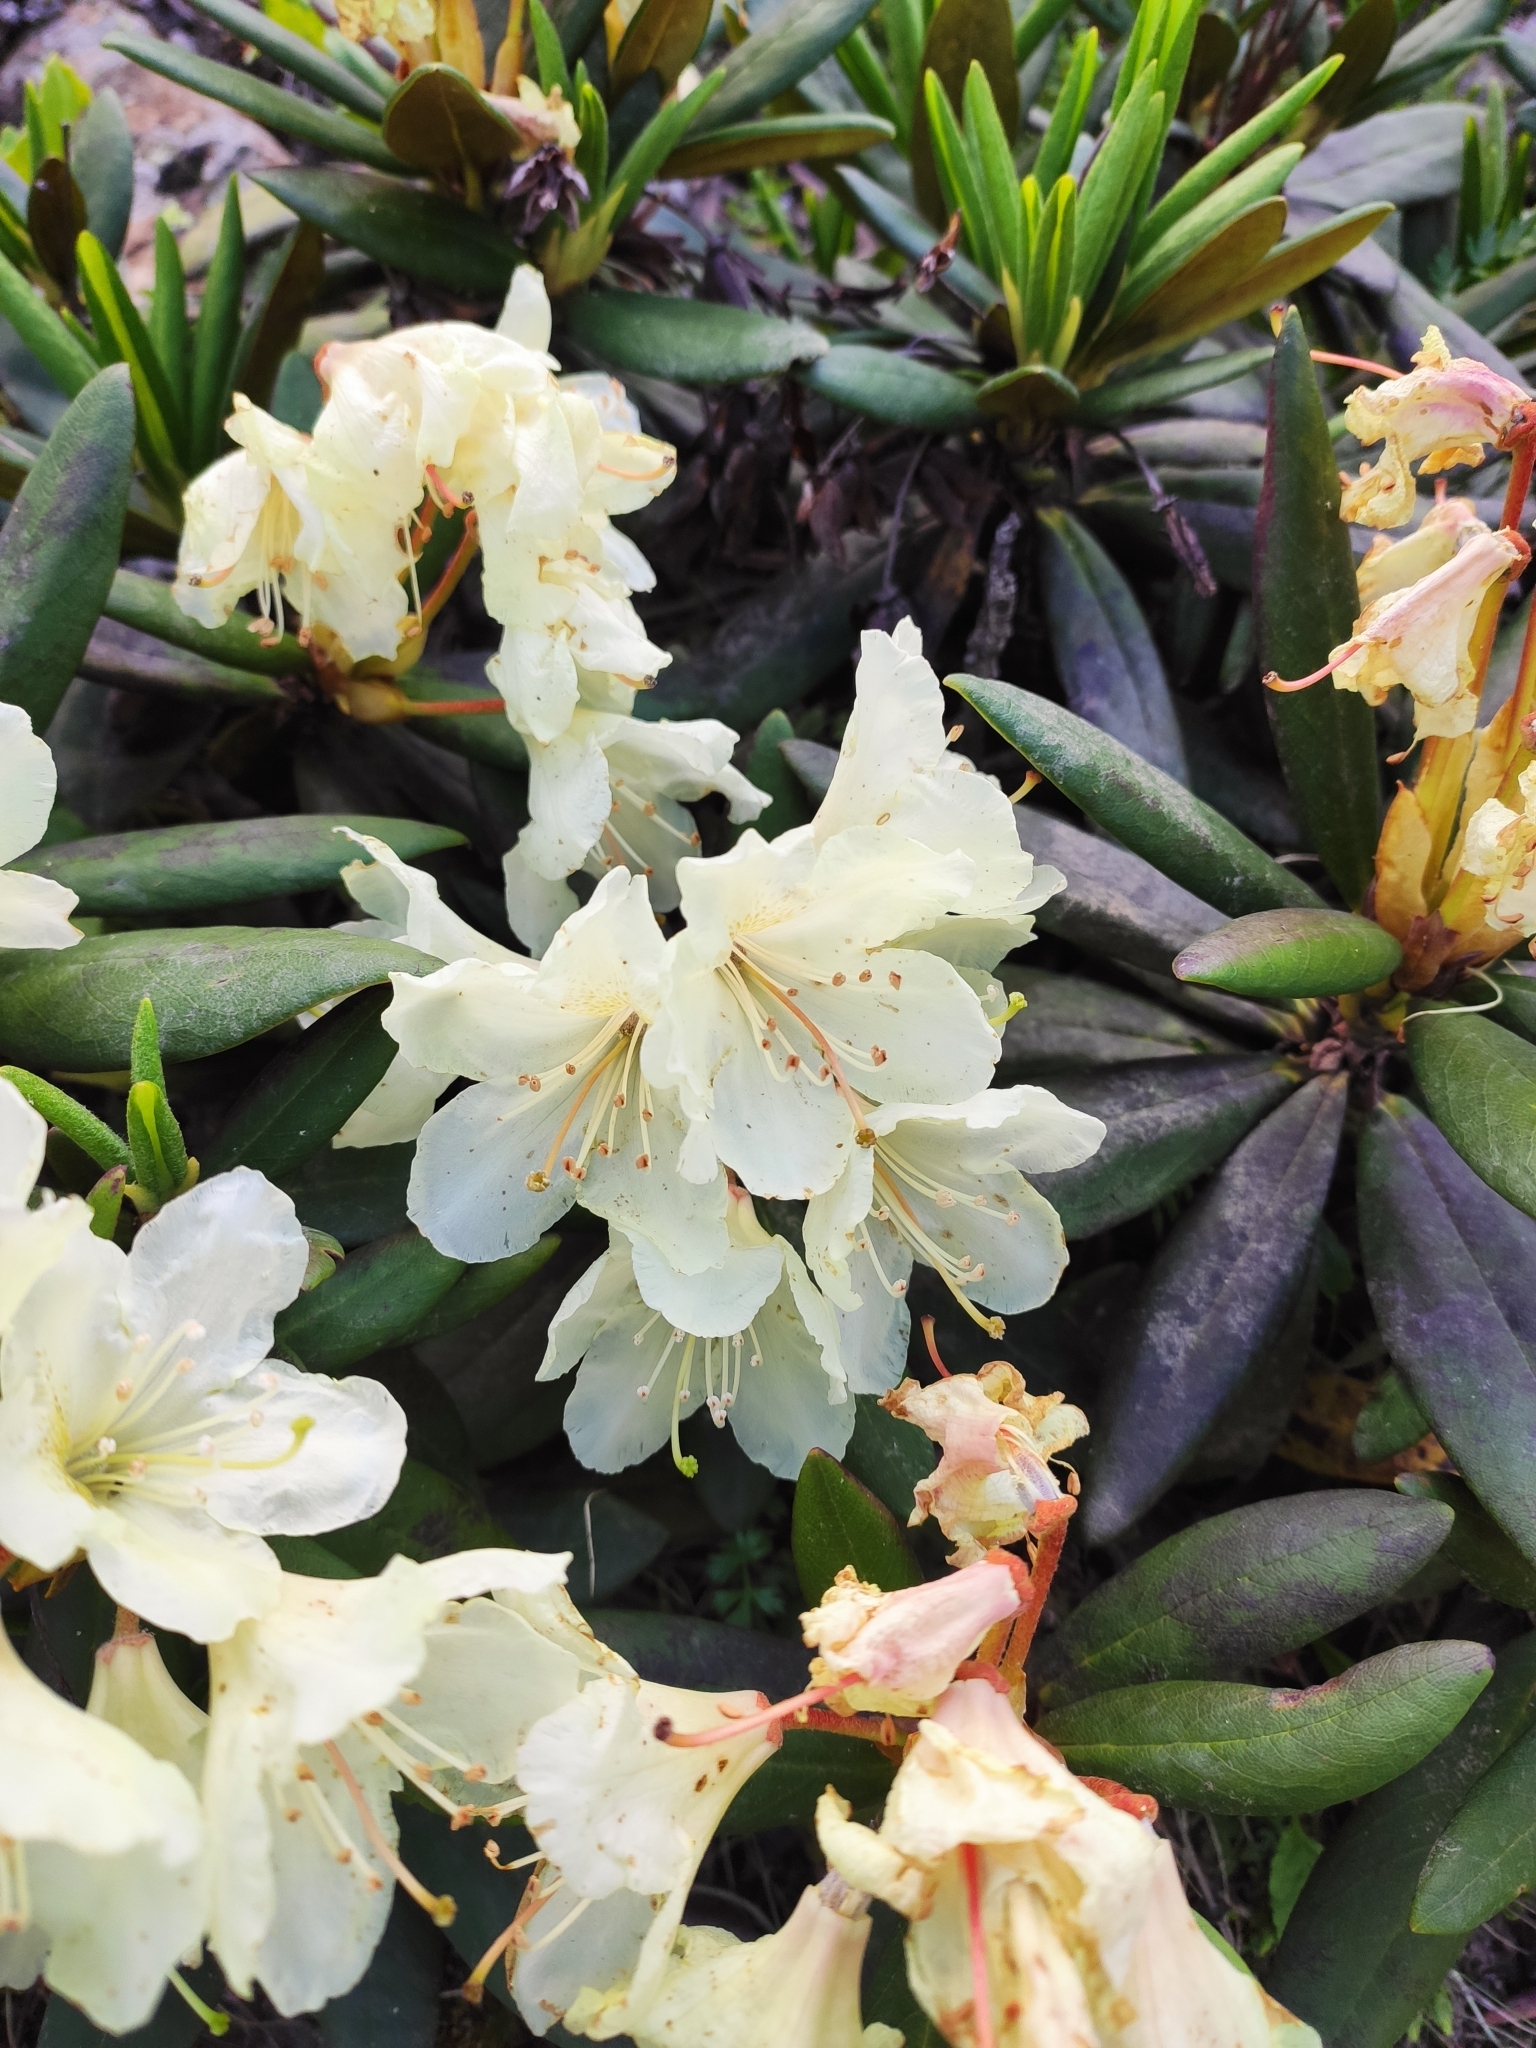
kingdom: Plantae
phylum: Tracheophyta
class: Magnoliopsida
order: Ericales
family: Ericaceae
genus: Rhododendron
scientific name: Rhododendron caucasicum
